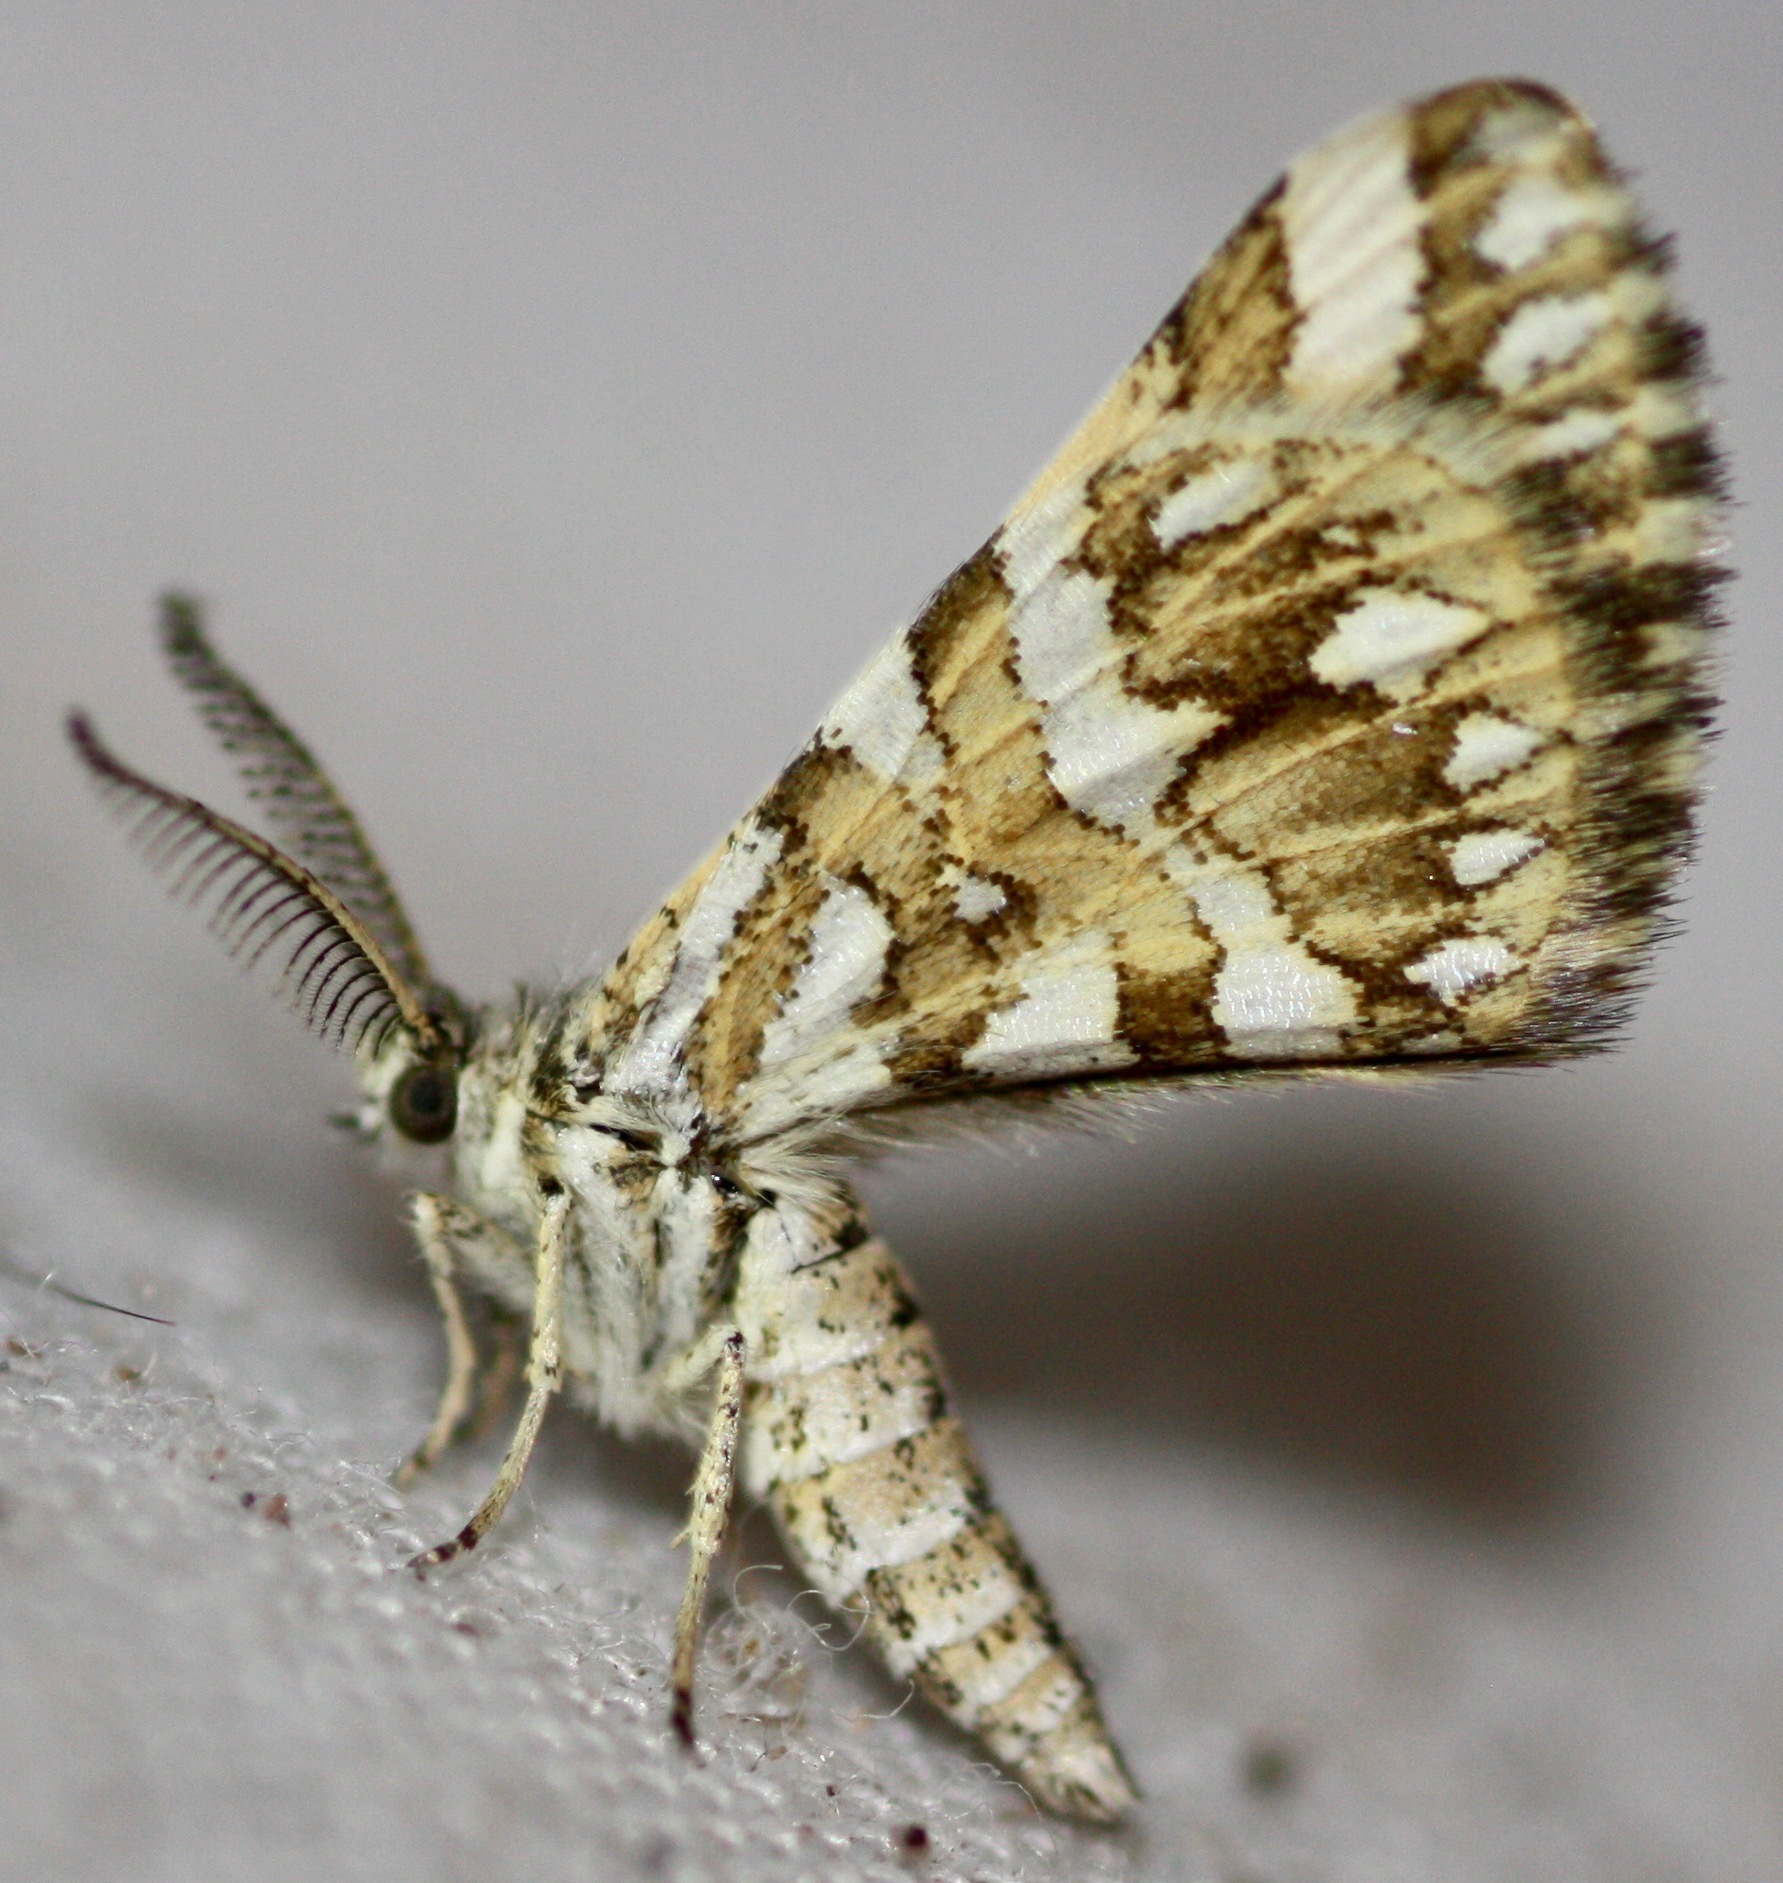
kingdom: Animalia
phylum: Arthropoda
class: Insecta
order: Lepidoptera
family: Geometridae
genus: Narraga
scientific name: Narraga fimetaria
